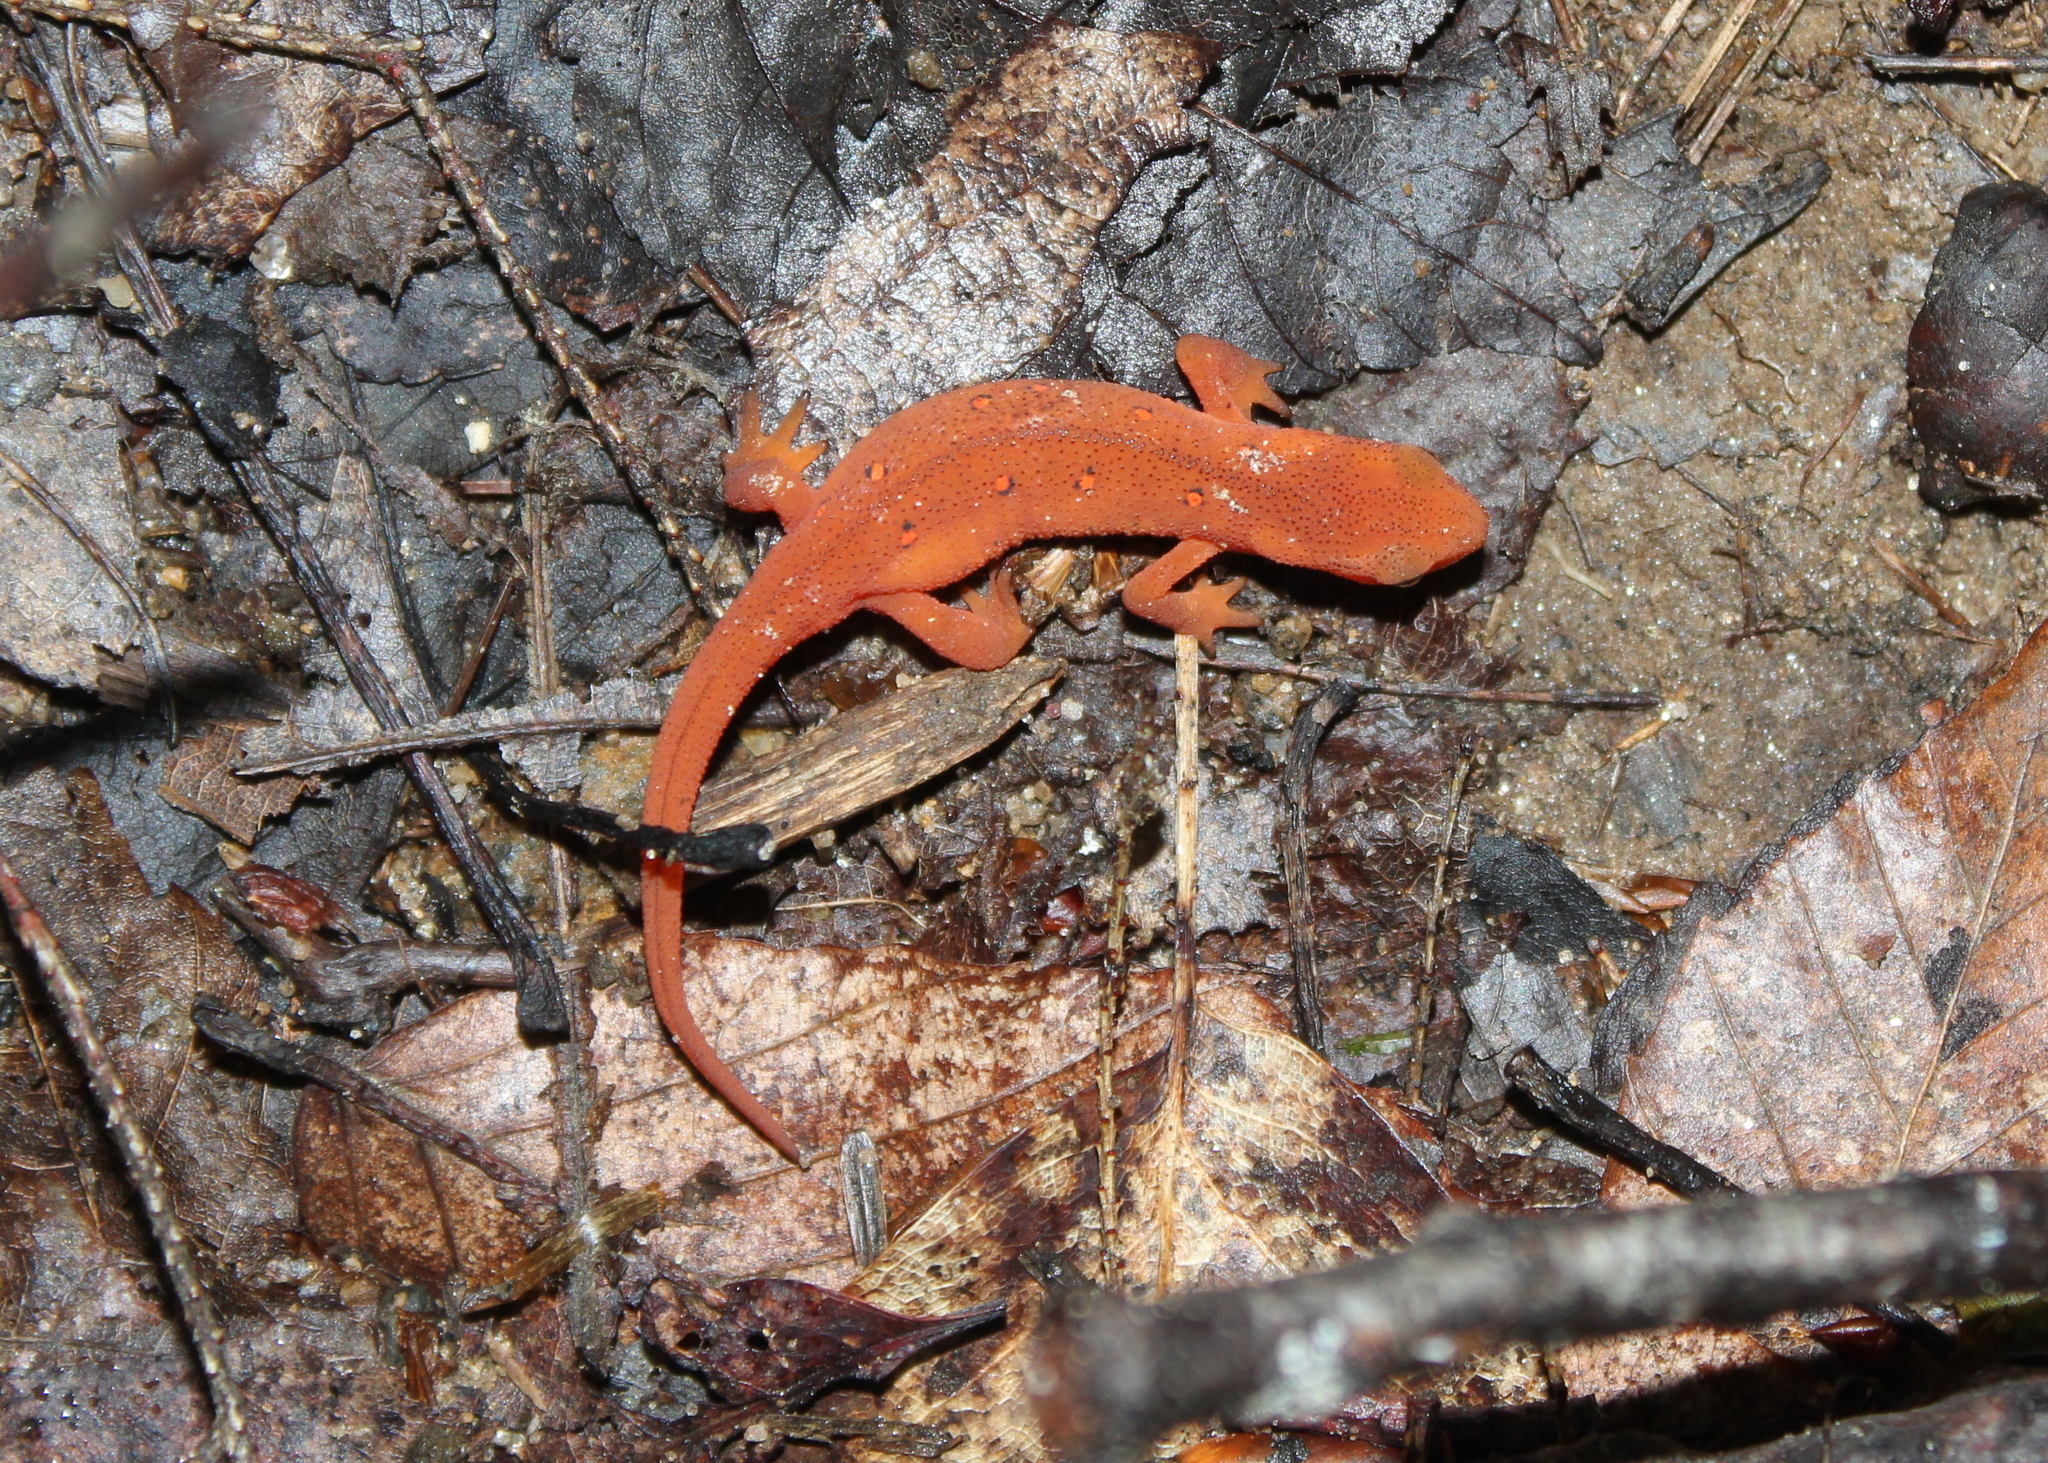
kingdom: Animalia
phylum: Chordata
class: Amphibia
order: Caudata
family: Salamandridae
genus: Notophthalmus
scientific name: Notophthalmus viridescens
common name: Eastern newt
